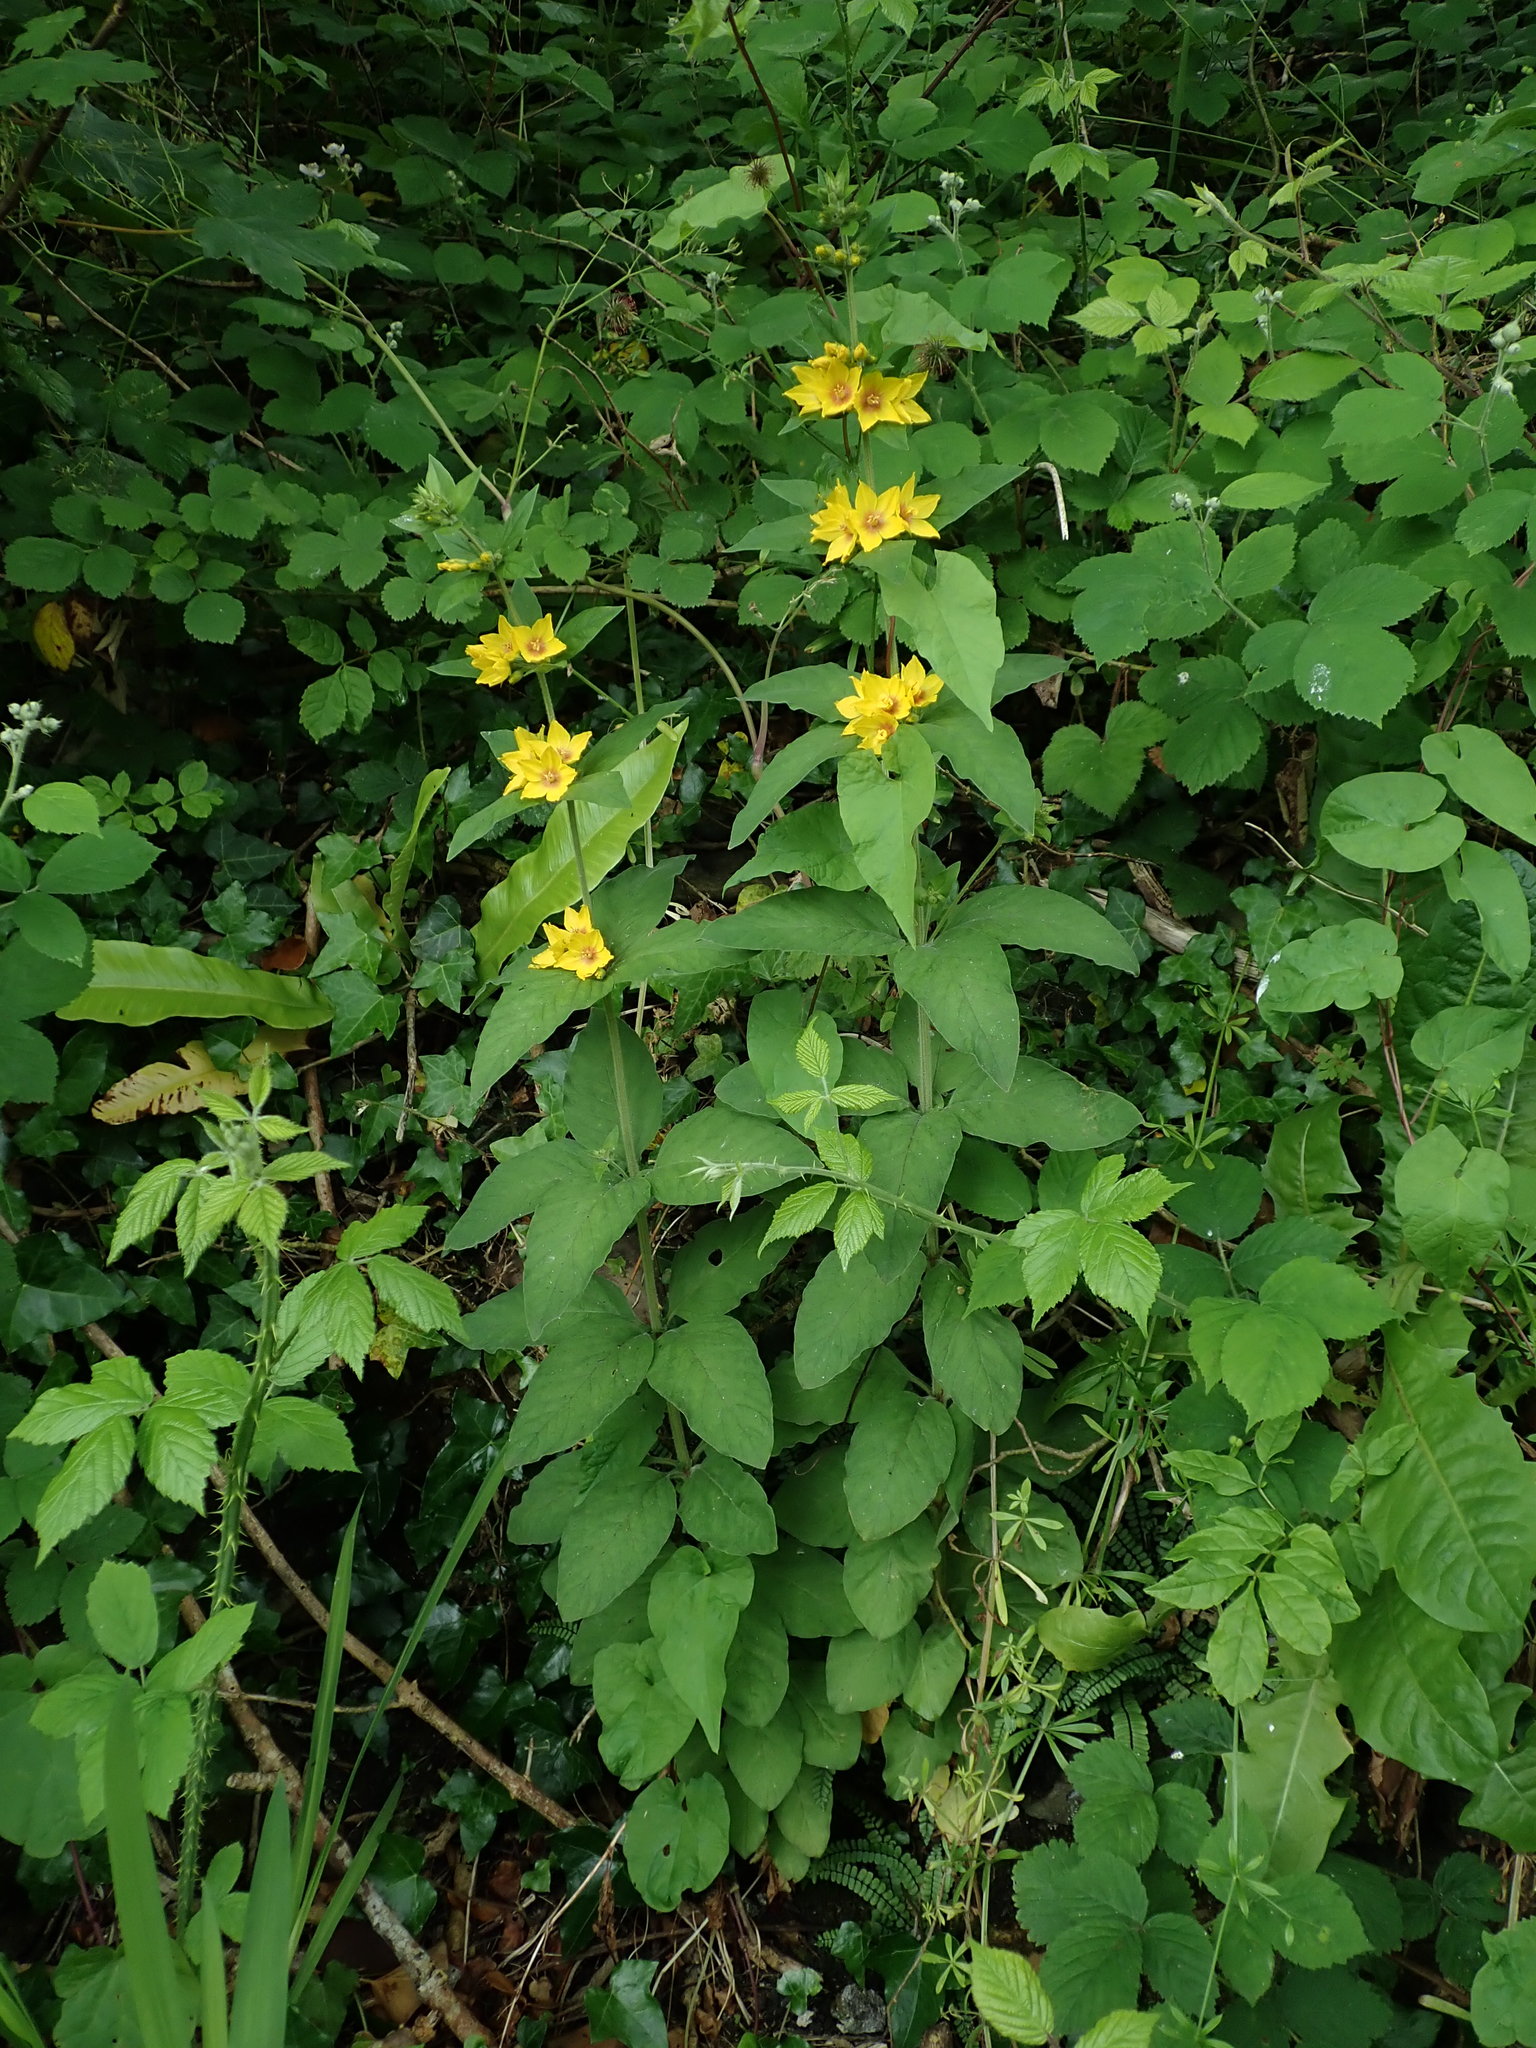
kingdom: Plantae
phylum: Tracheophyta
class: Magnoliopsida
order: Ericales
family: Primulaceae
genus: Lysimachia
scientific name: Lysimachia punctata
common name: Dotted loosestrife
